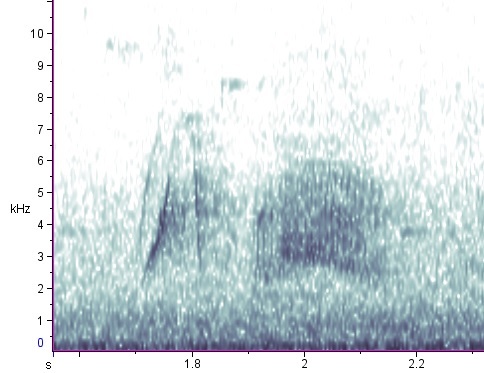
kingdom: Animalia
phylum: Chordata
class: Aves
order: Passeriformes
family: Tyrannidae
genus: Empidonax
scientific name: Empidonax traillii
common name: Willow flycatcher
